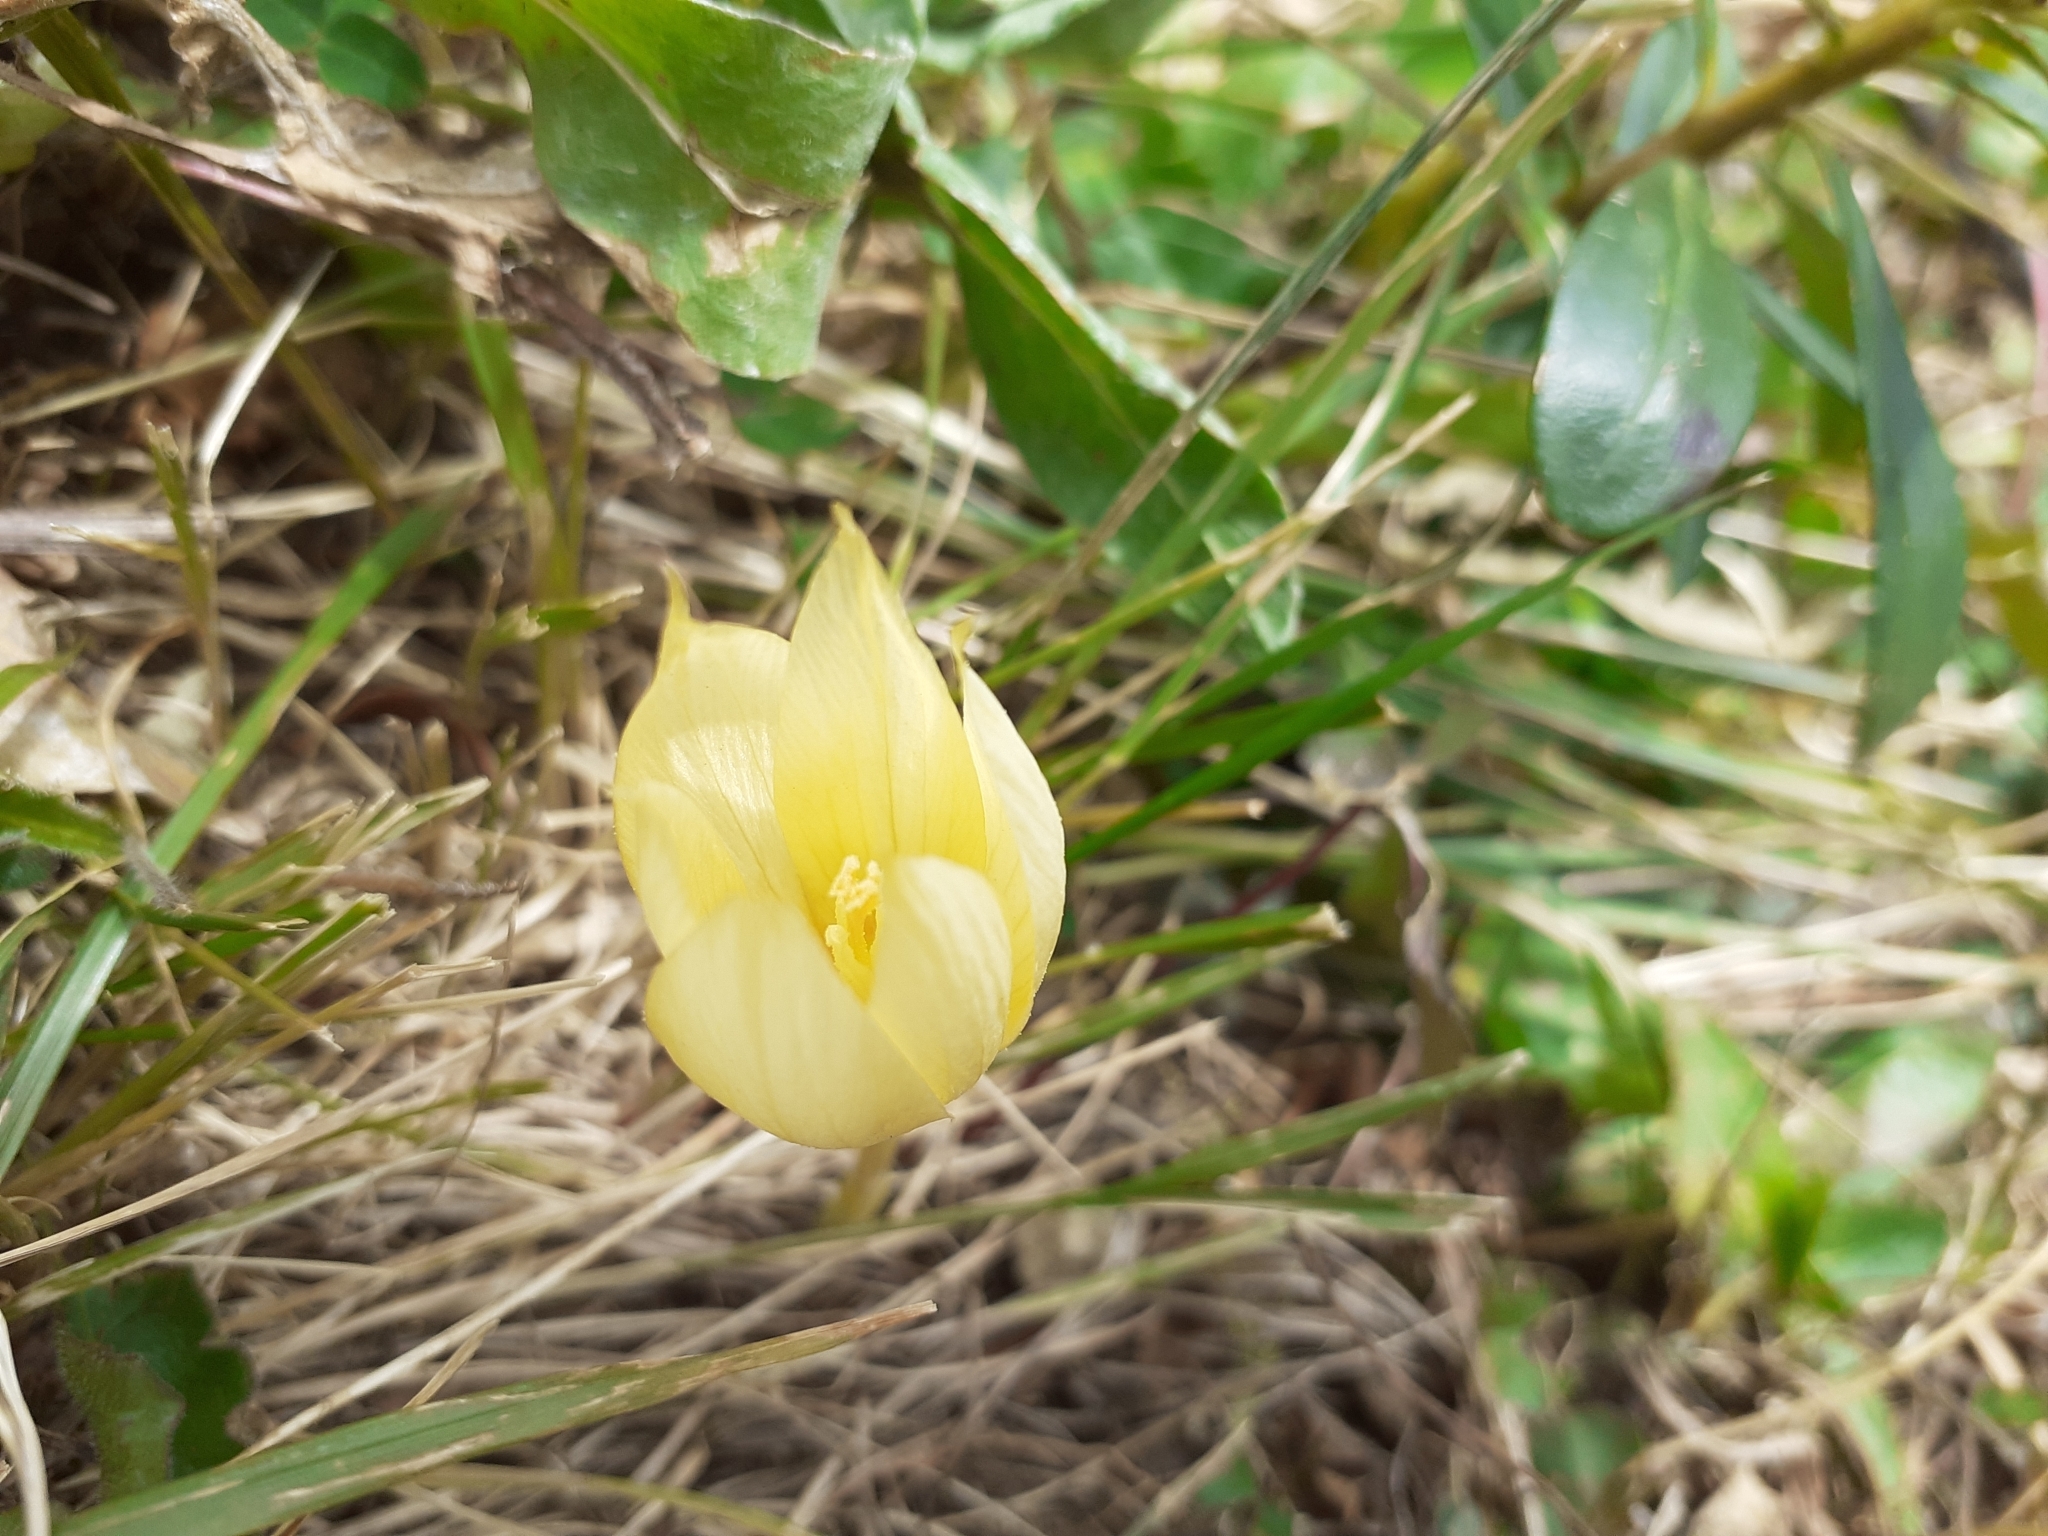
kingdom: Plantae
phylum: Tracheophyta
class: Liliopsida
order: Asparagales
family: Iridaceae
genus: Crocus
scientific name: Crocus suworowianus
